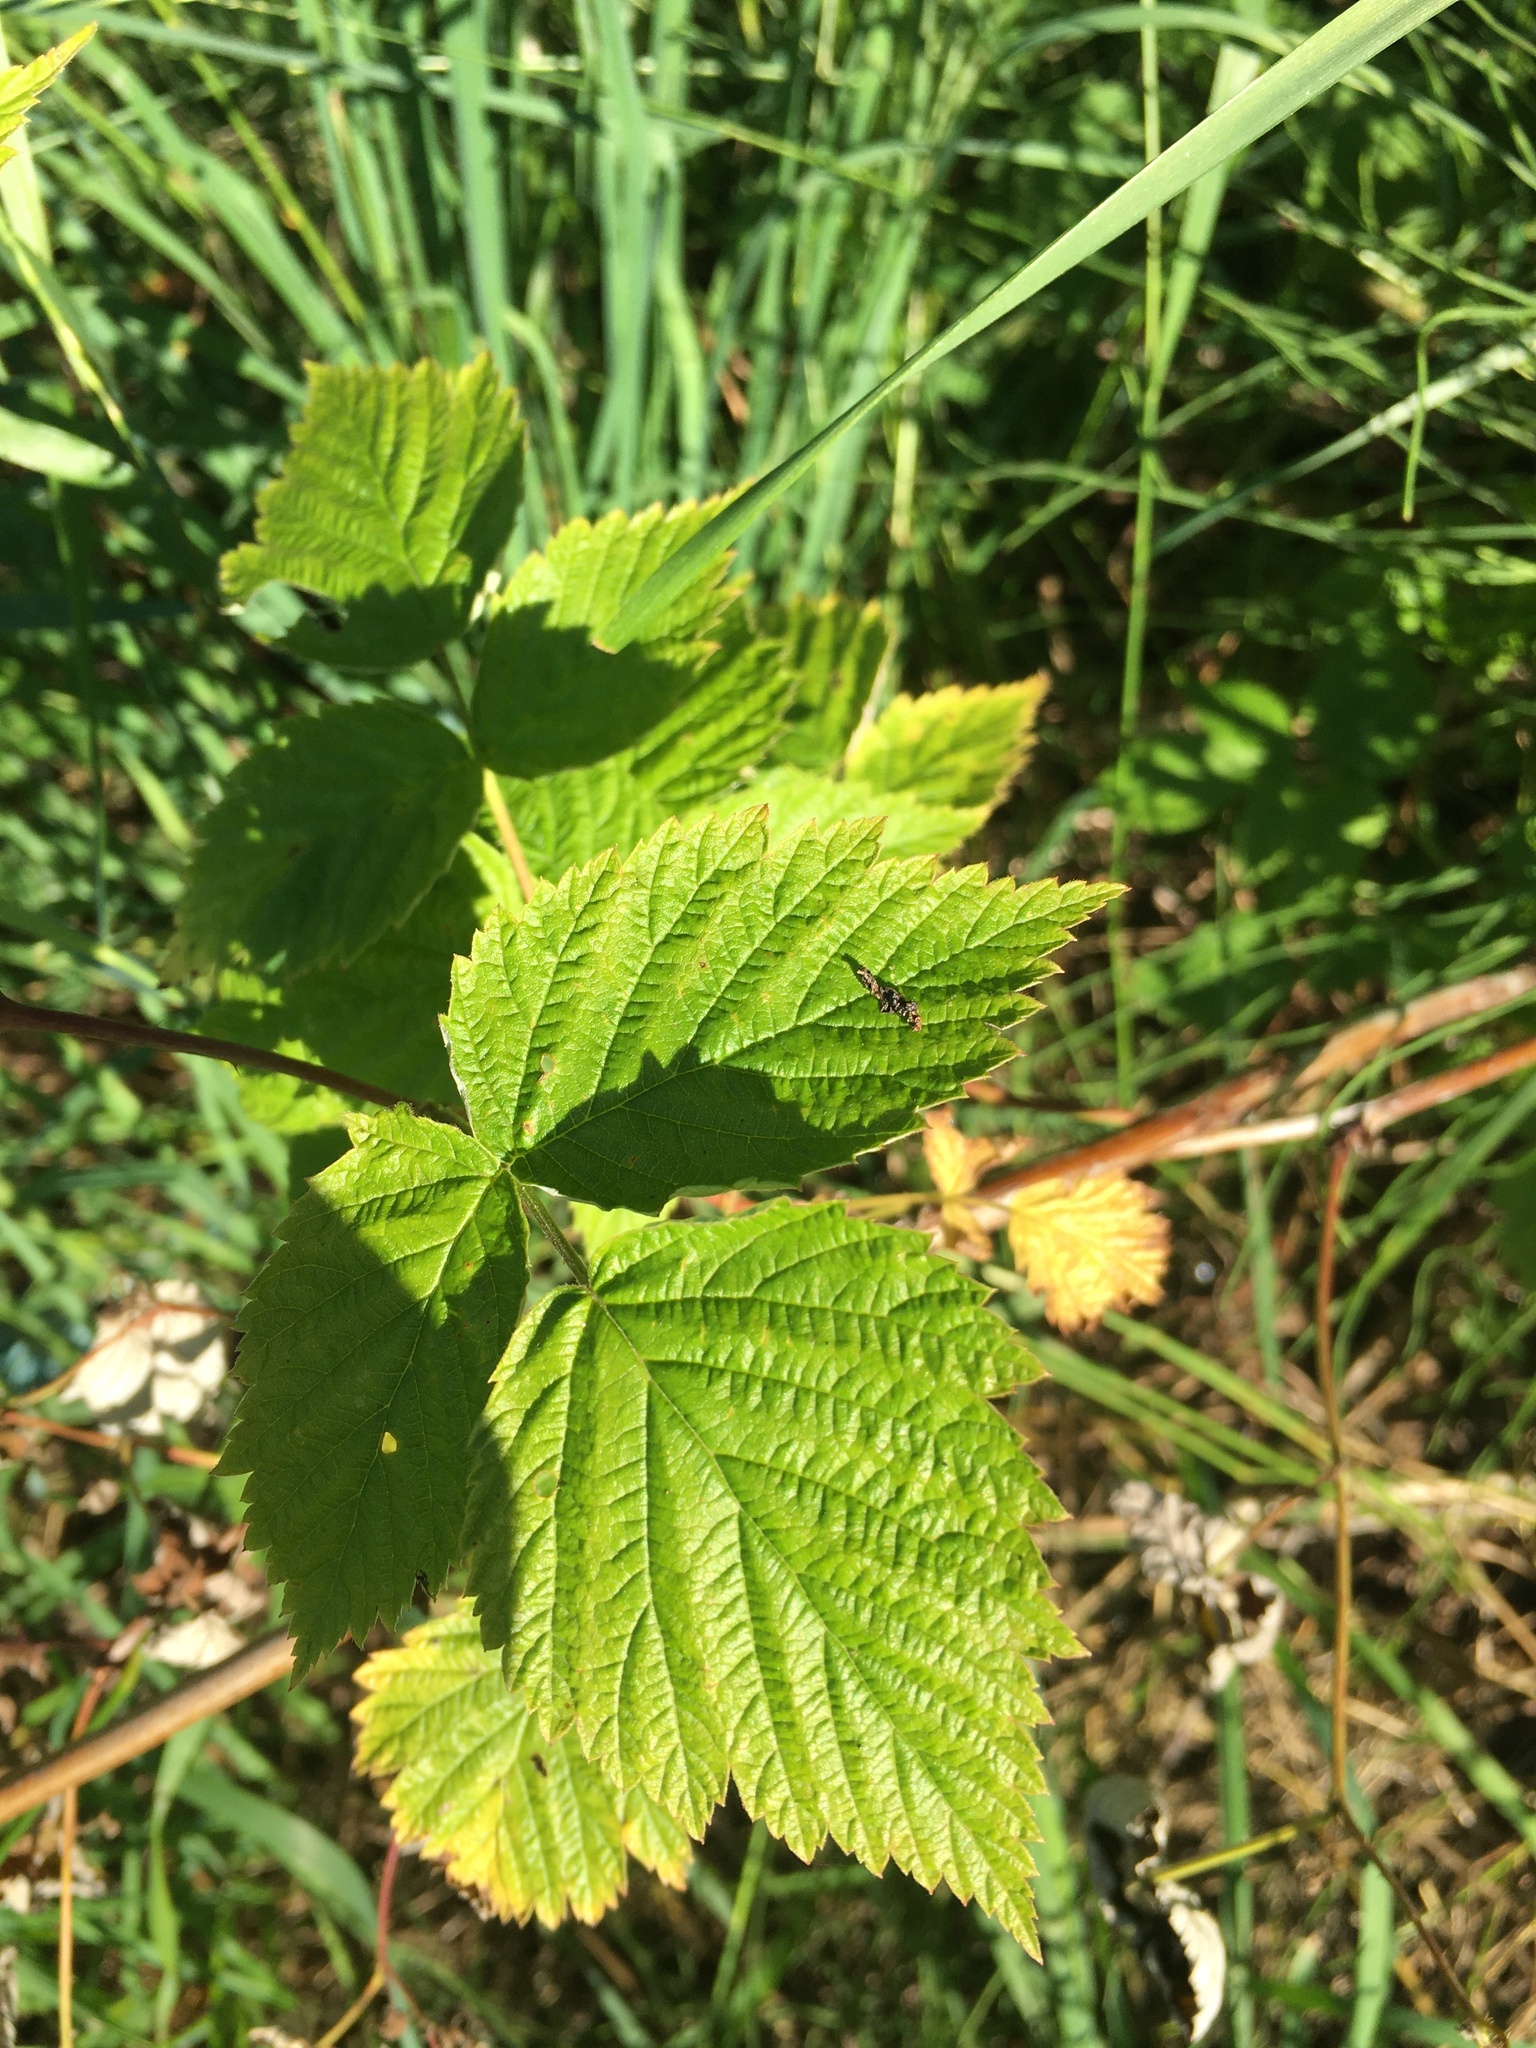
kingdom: Plantae
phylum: Tracheophyta
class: Magnoliopsida
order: Rosales
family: Rosaceae
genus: Rubus
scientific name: Rubus idaeus
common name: Raspberry
